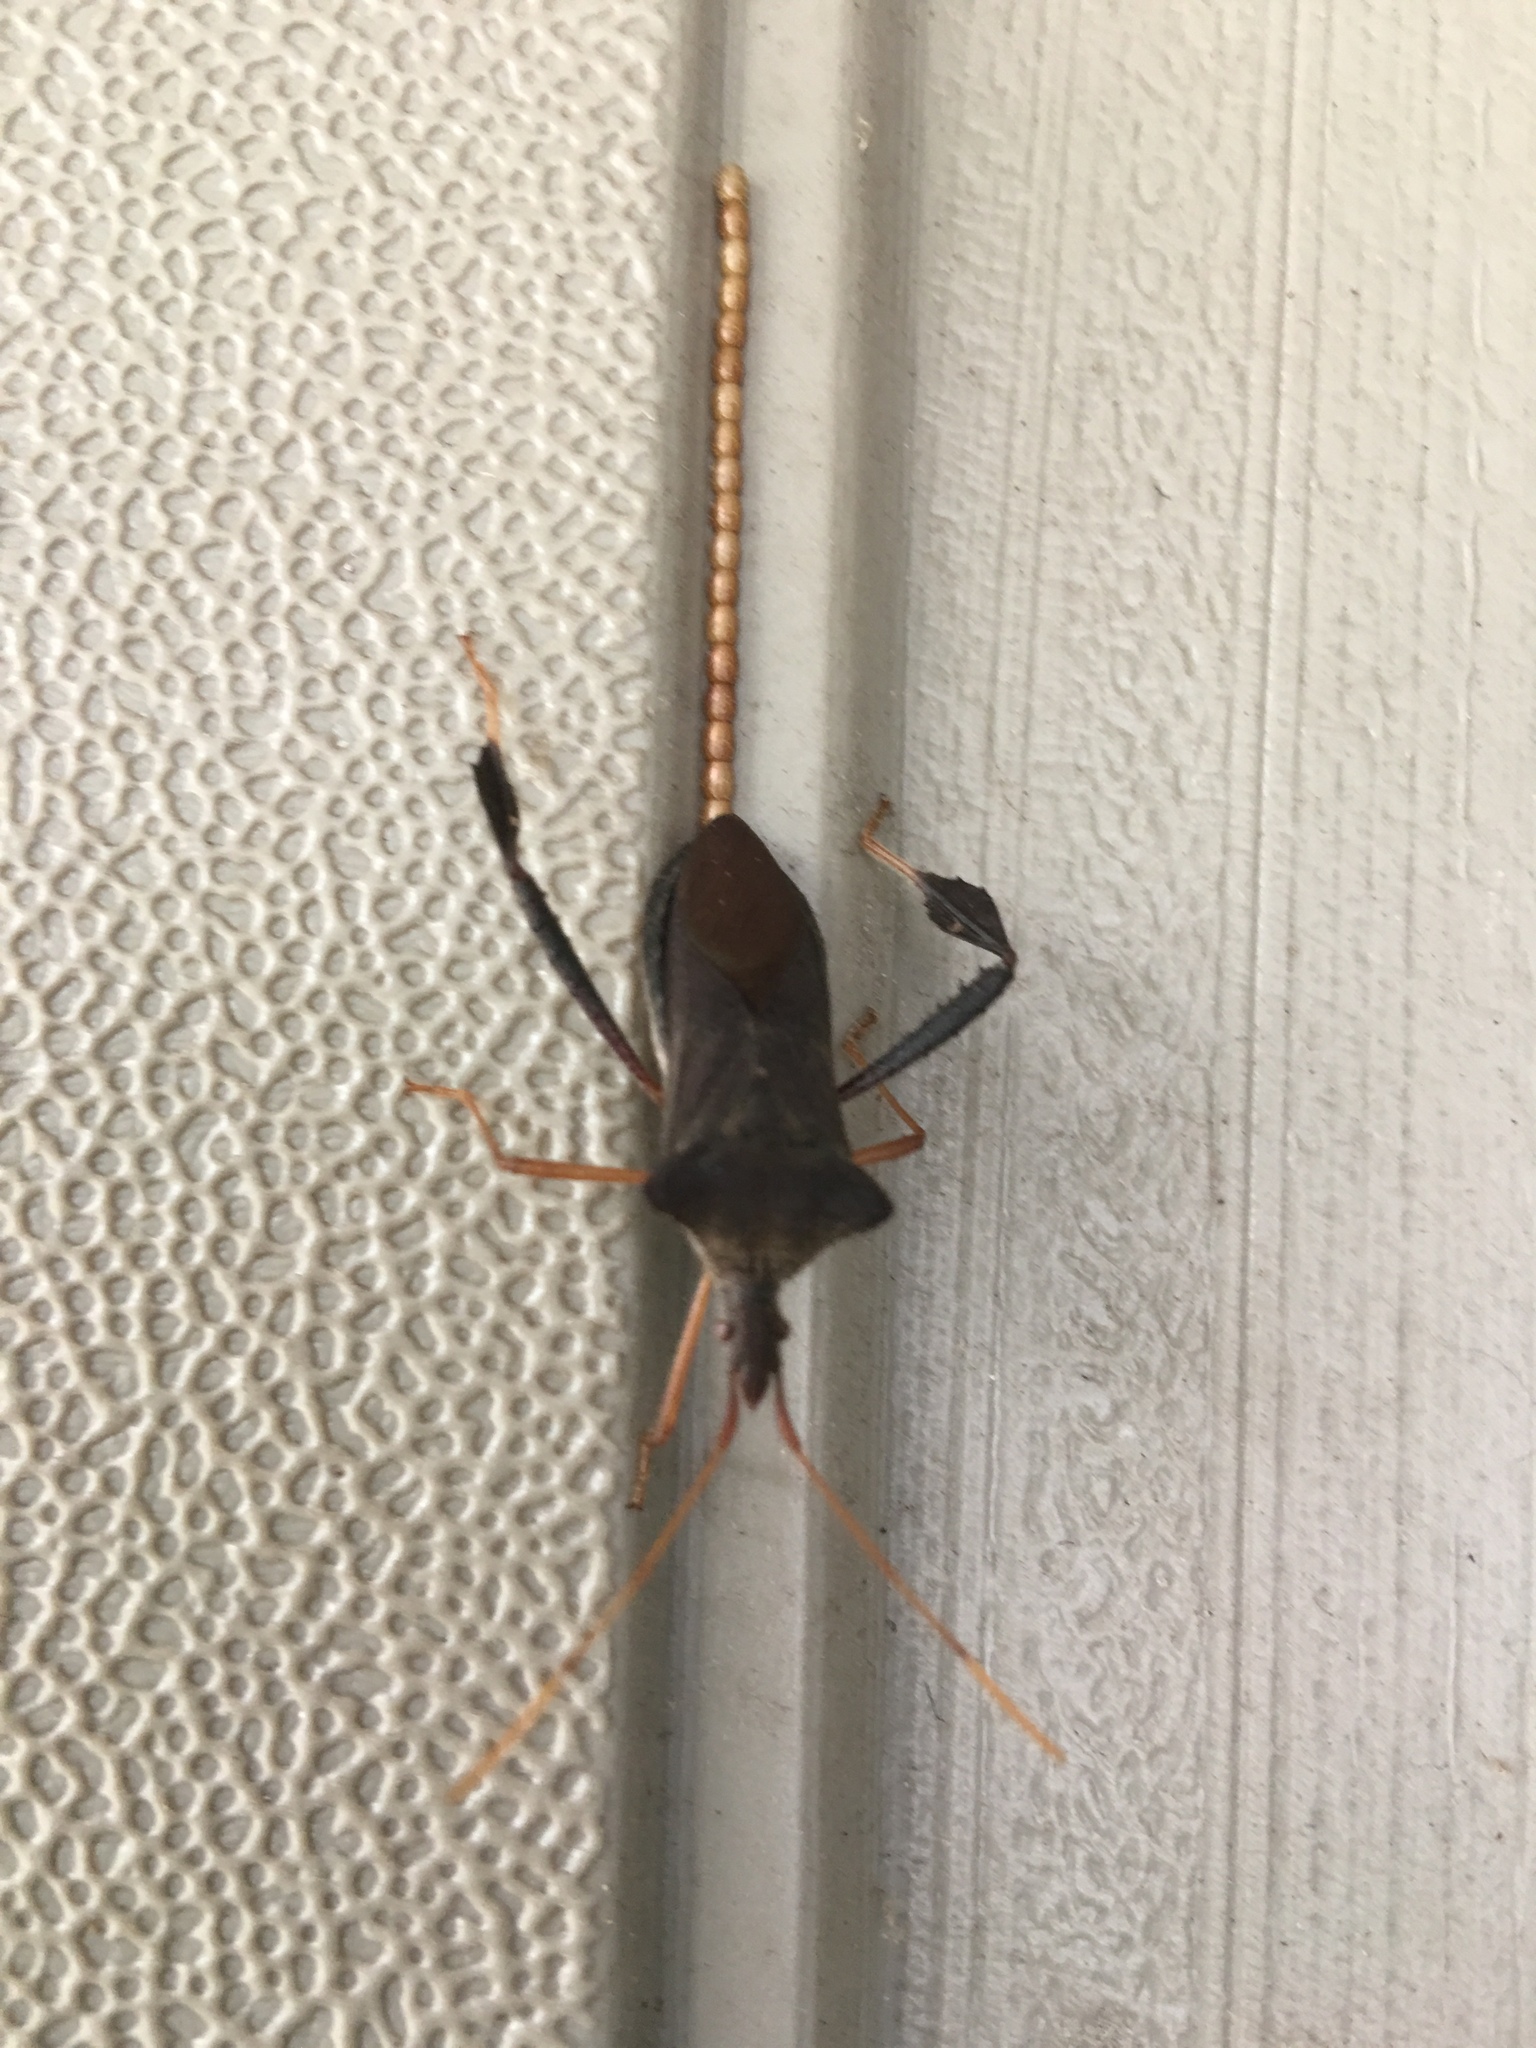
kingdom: Animalia
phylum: Arthropoda
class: Insecta
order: Hemiptera
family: Coreidae
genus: Leptoglossus
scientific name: Leptoglossus fulvicornis
